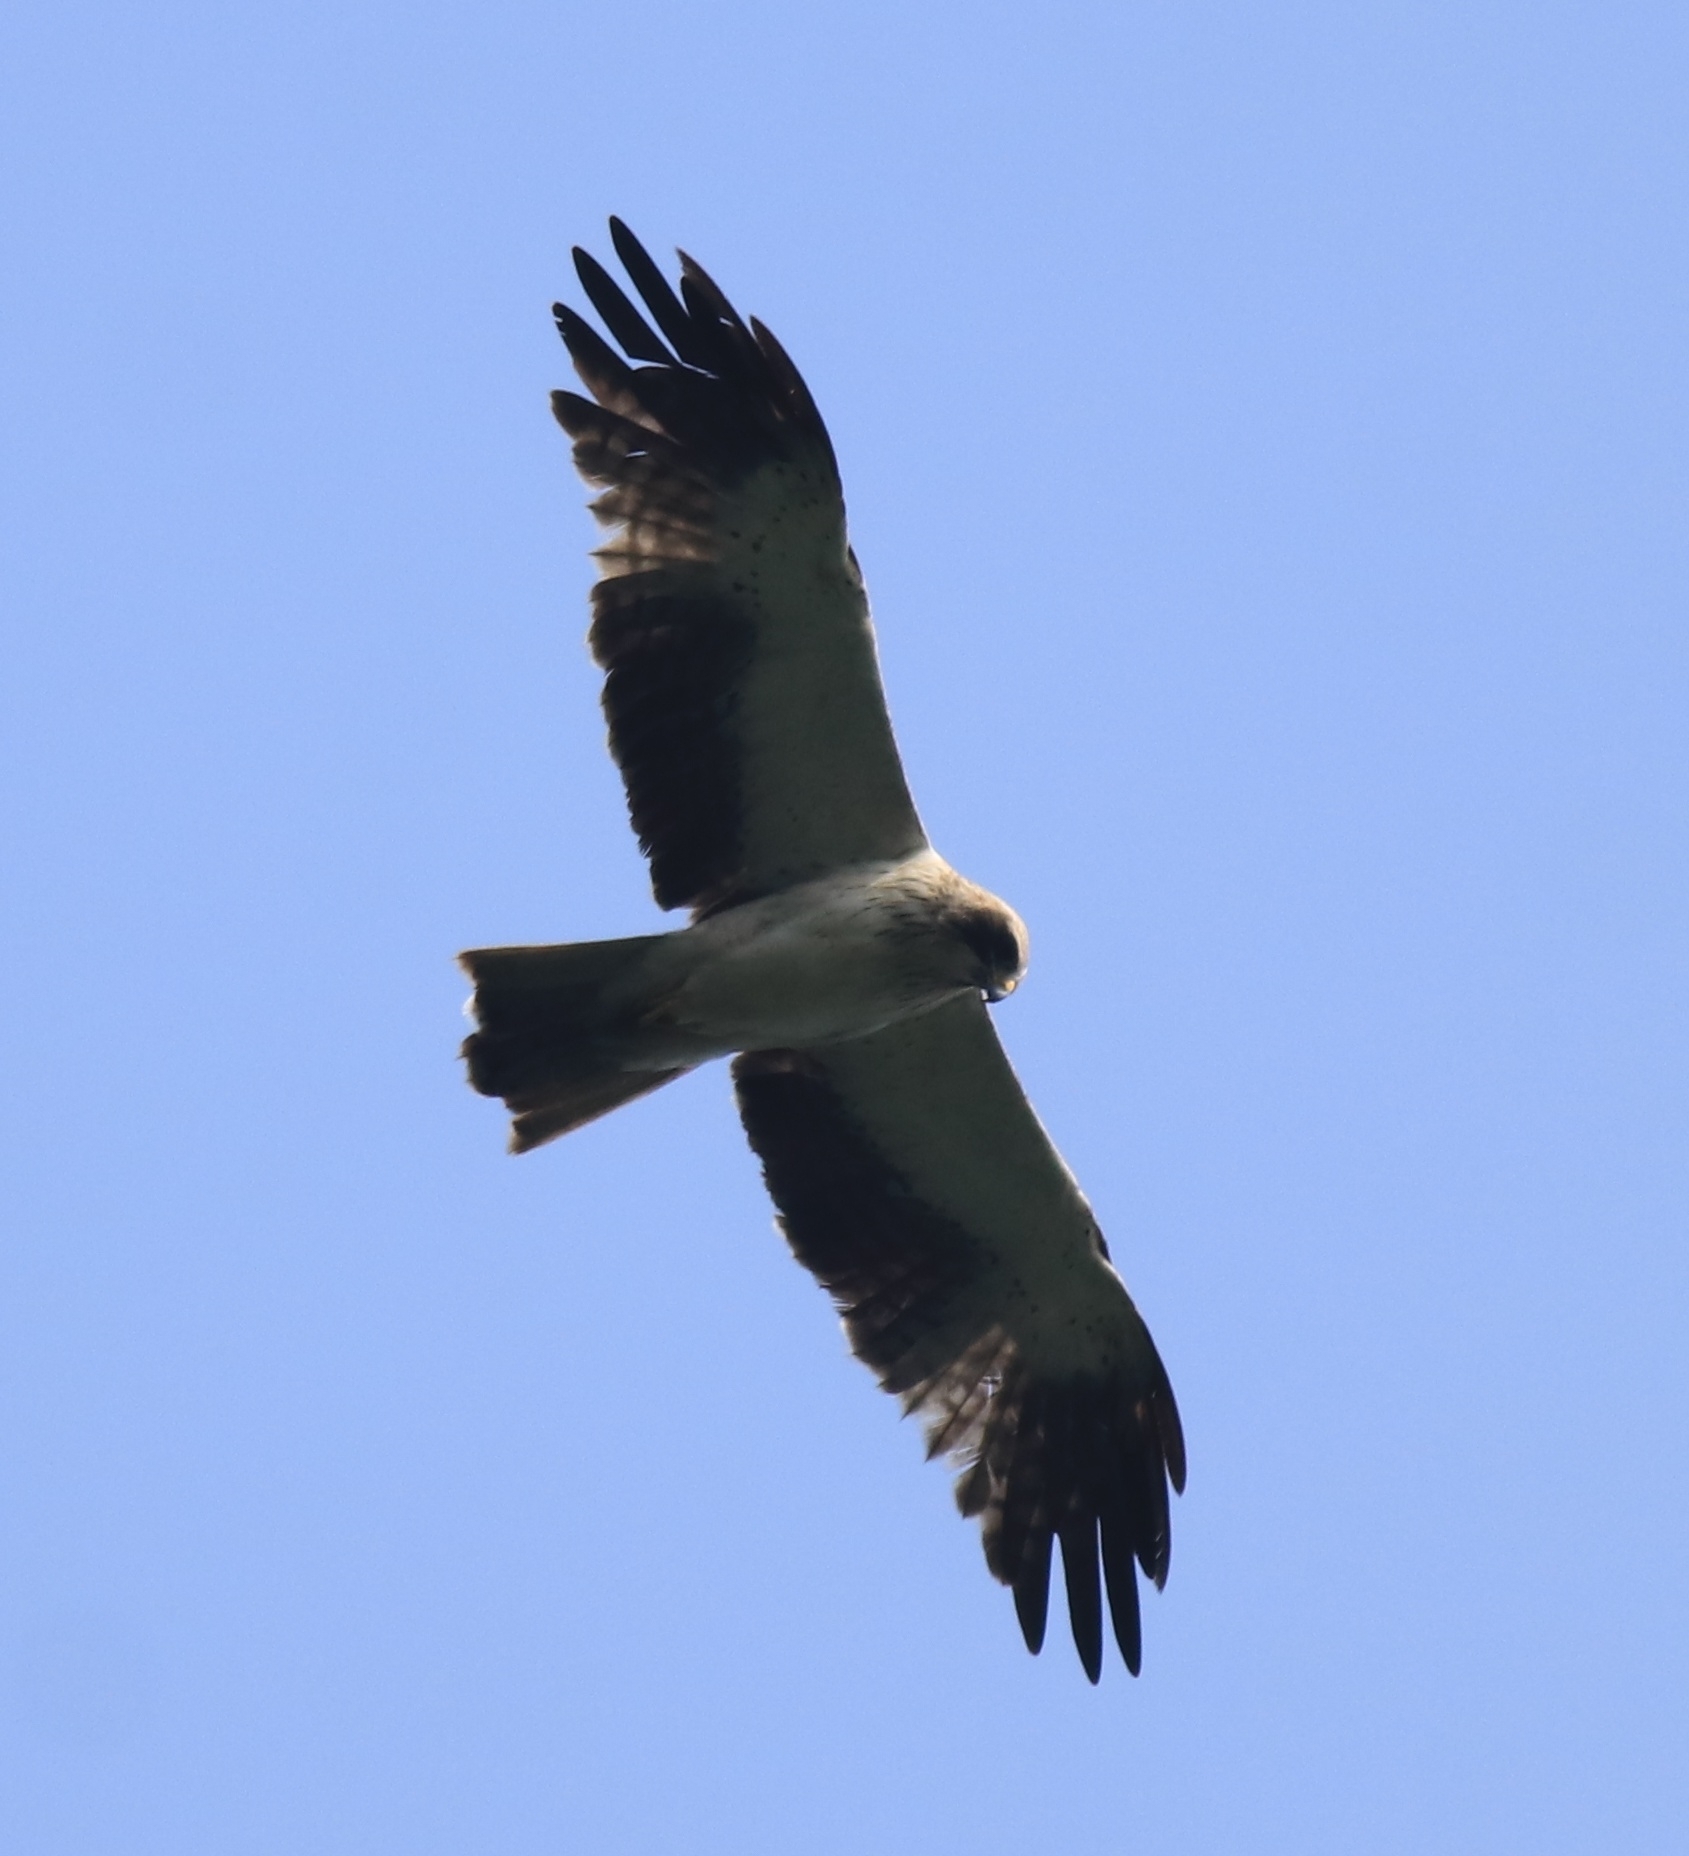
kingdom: Animalia
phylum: Chordata
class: Aves
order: Accipitriformes
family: Accipitridae
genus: Hieraaetus
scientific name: Hieraaetus pennatus
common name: Booted eagle
